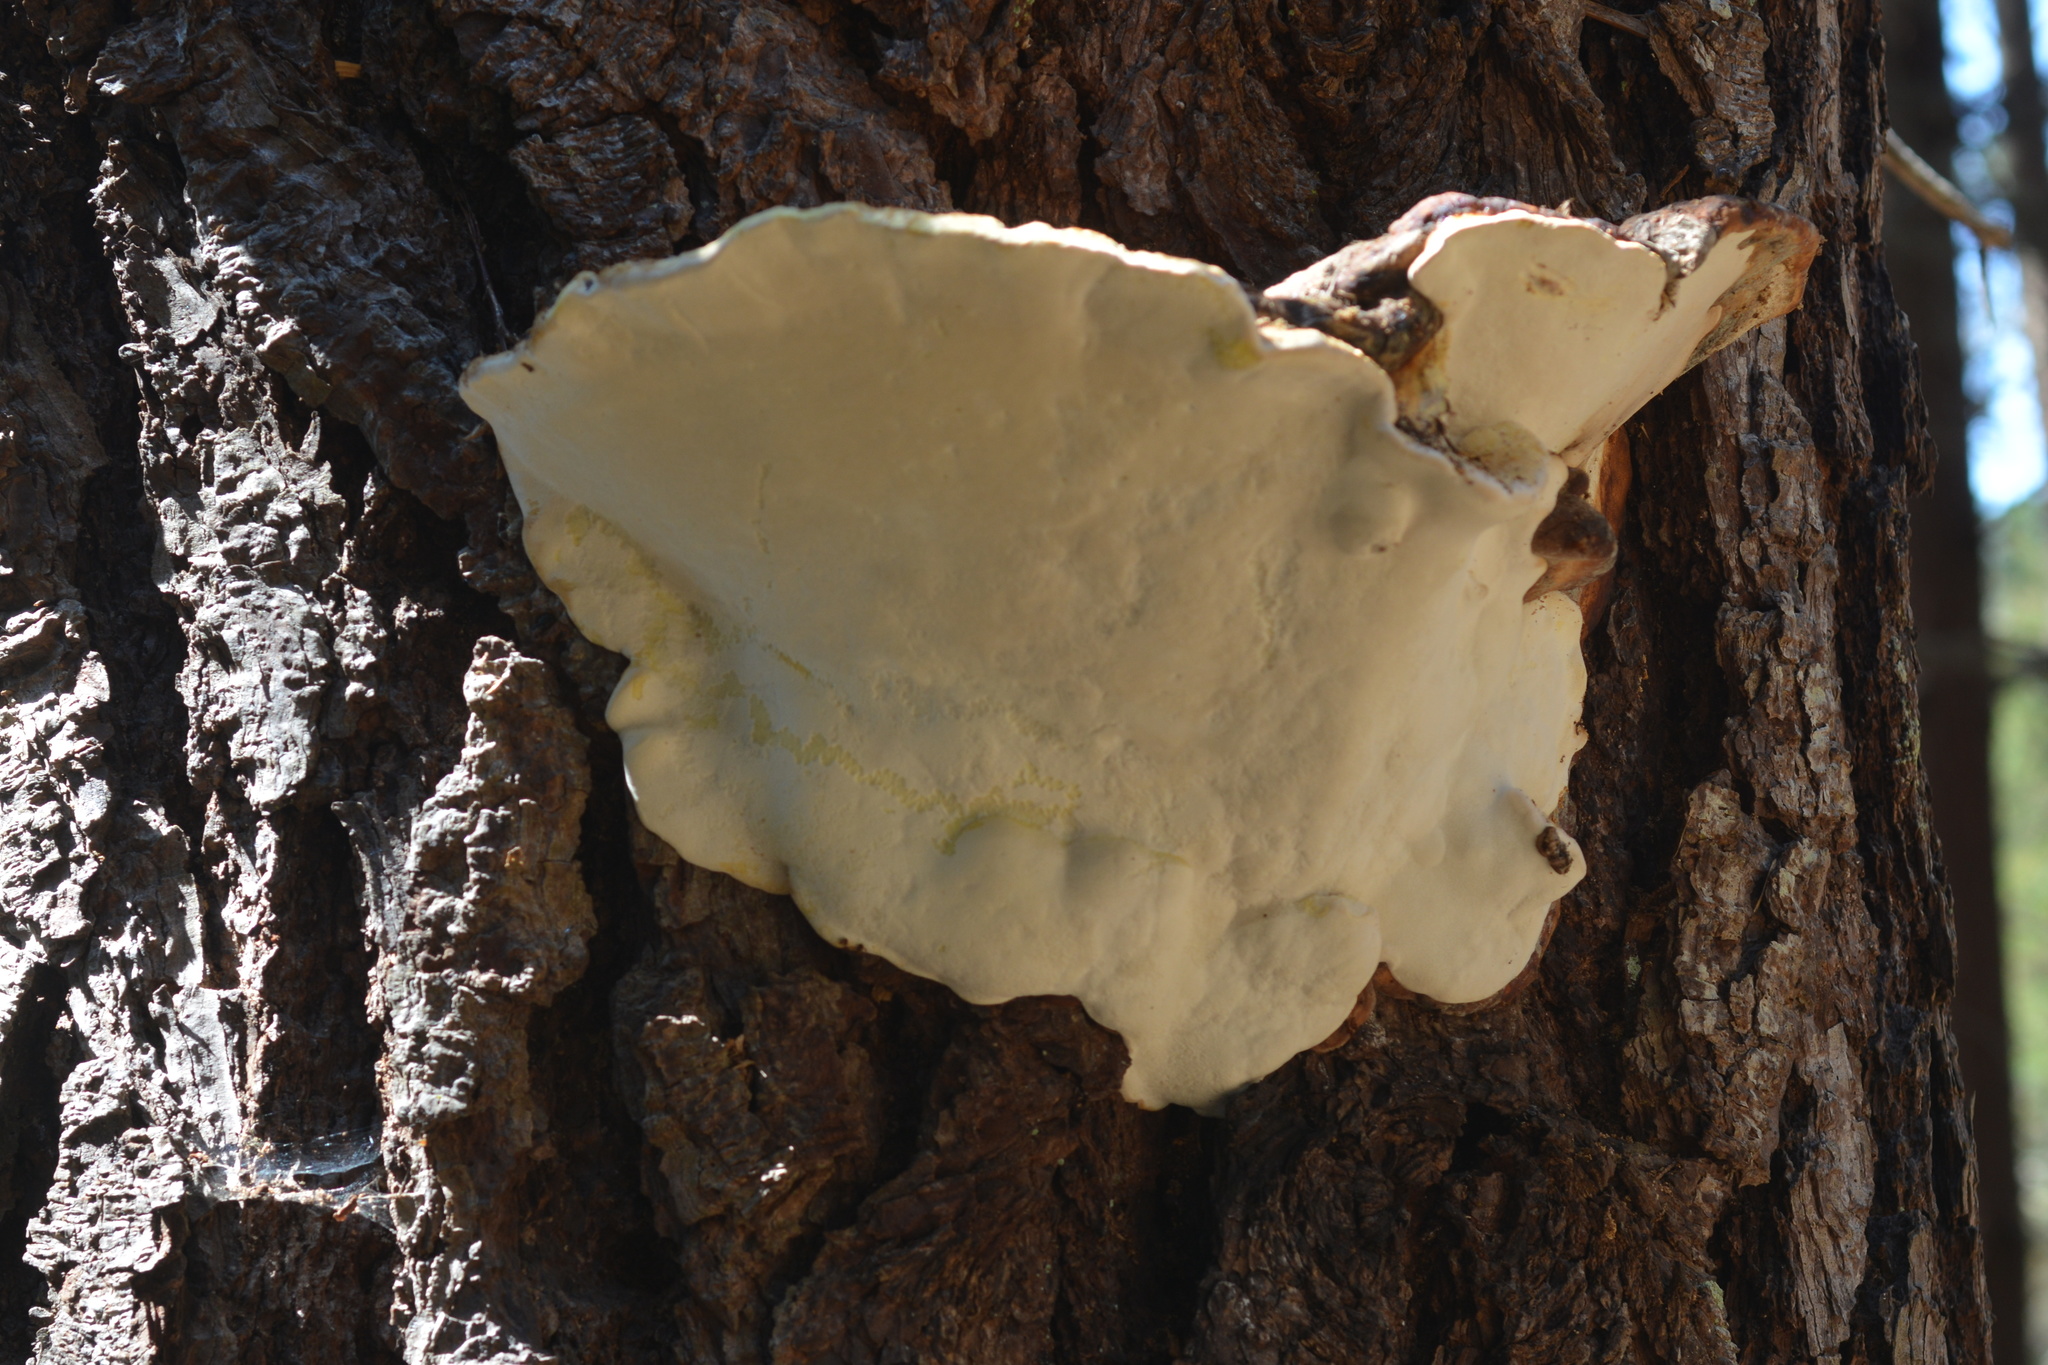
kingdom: Fungi
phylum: Basidiomycota
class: Agaricomycetes
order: Polyporales
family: Fomitopsidaceae
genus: Fomitopsis
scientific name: Fomitopsis mounceae
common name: Northern red belt
